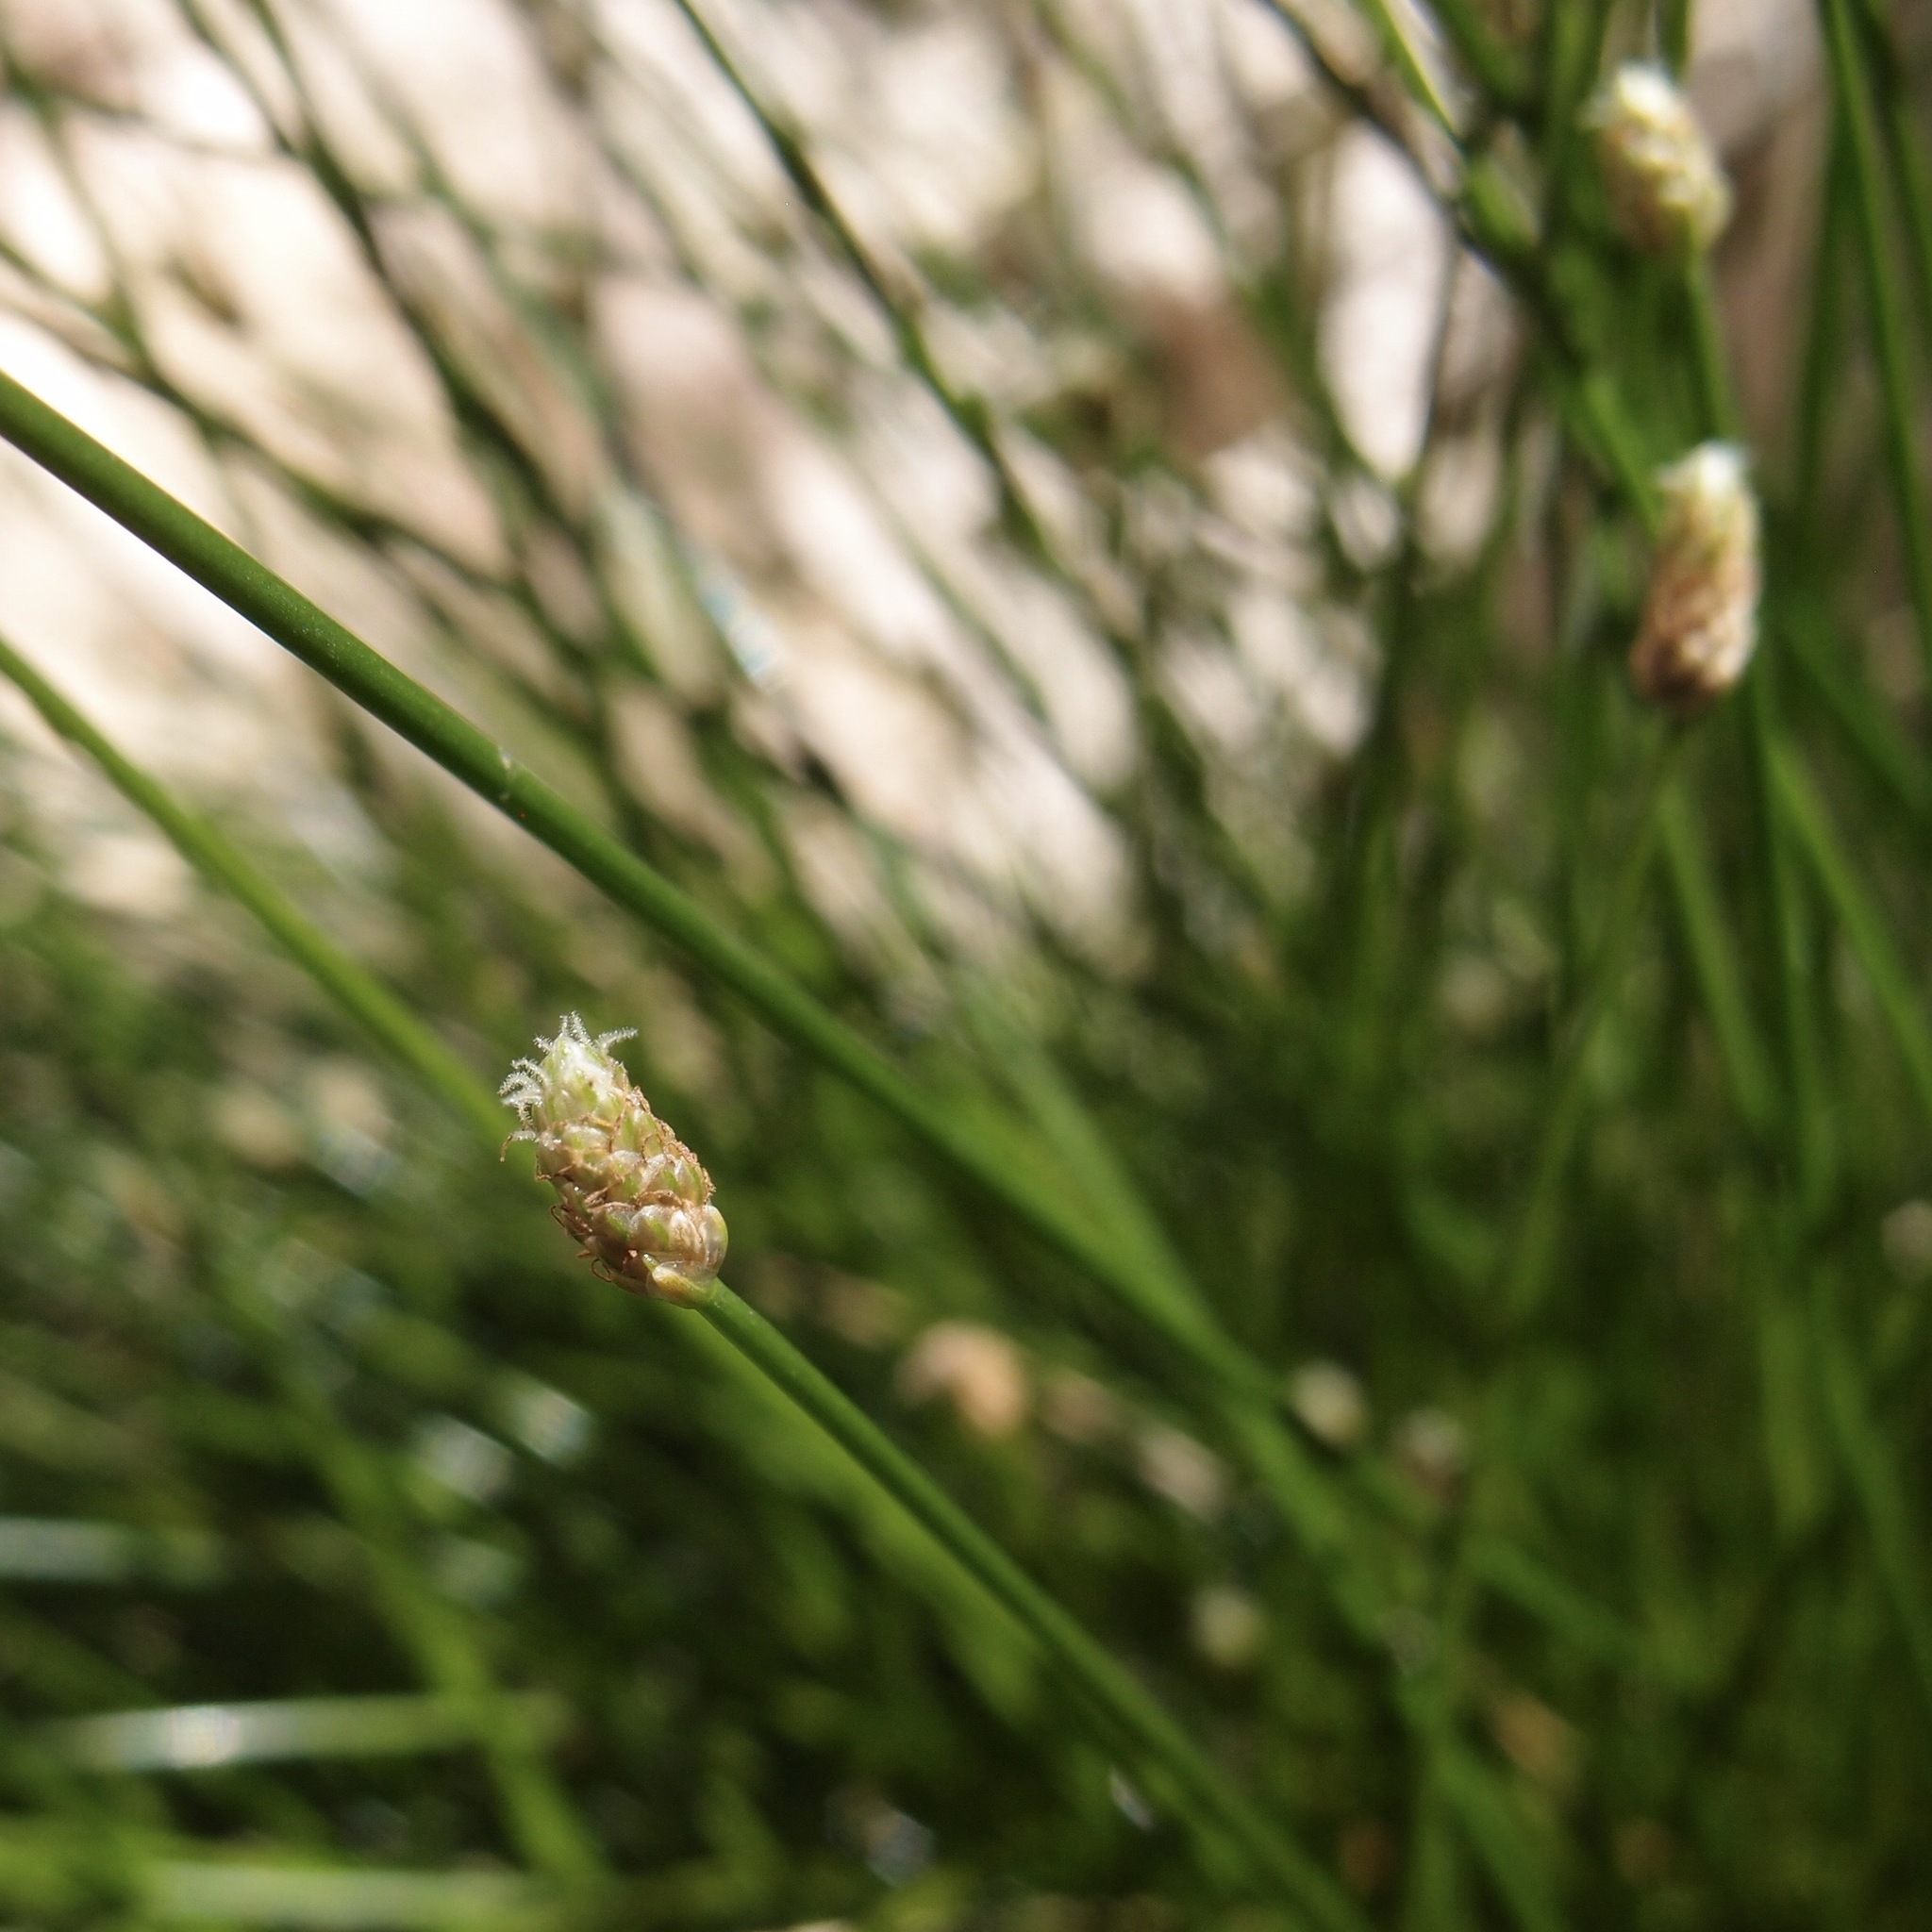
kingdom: Plantae
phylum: Tracheophyta
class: Liliopsida
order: Poales
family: Cyperaceae
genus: Eleocharis
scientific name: Eleocharis geniculata
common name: Canada spikesedge
